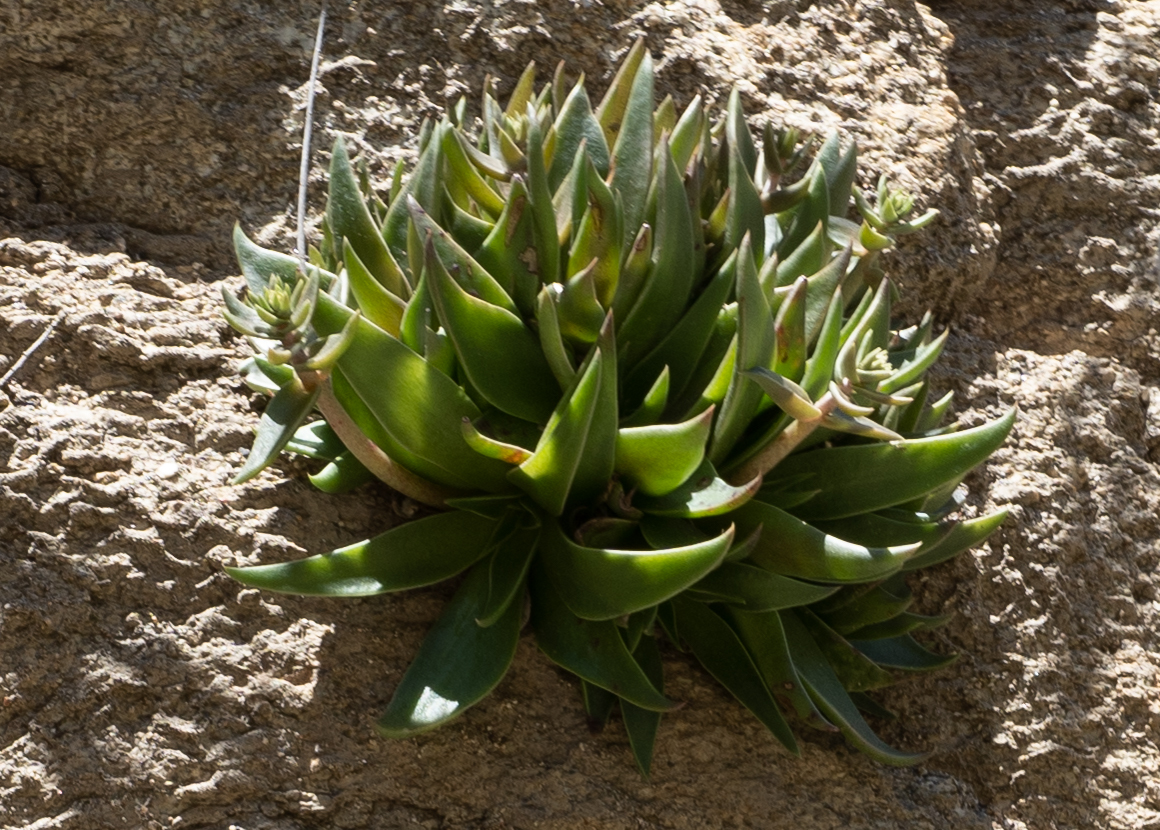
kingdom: Plantae
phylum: Tracheophyta
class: Magnoliopsida
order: Saxifragales
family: Crassulaceae
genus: Dudleya
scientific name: Dudleya lanceolata
